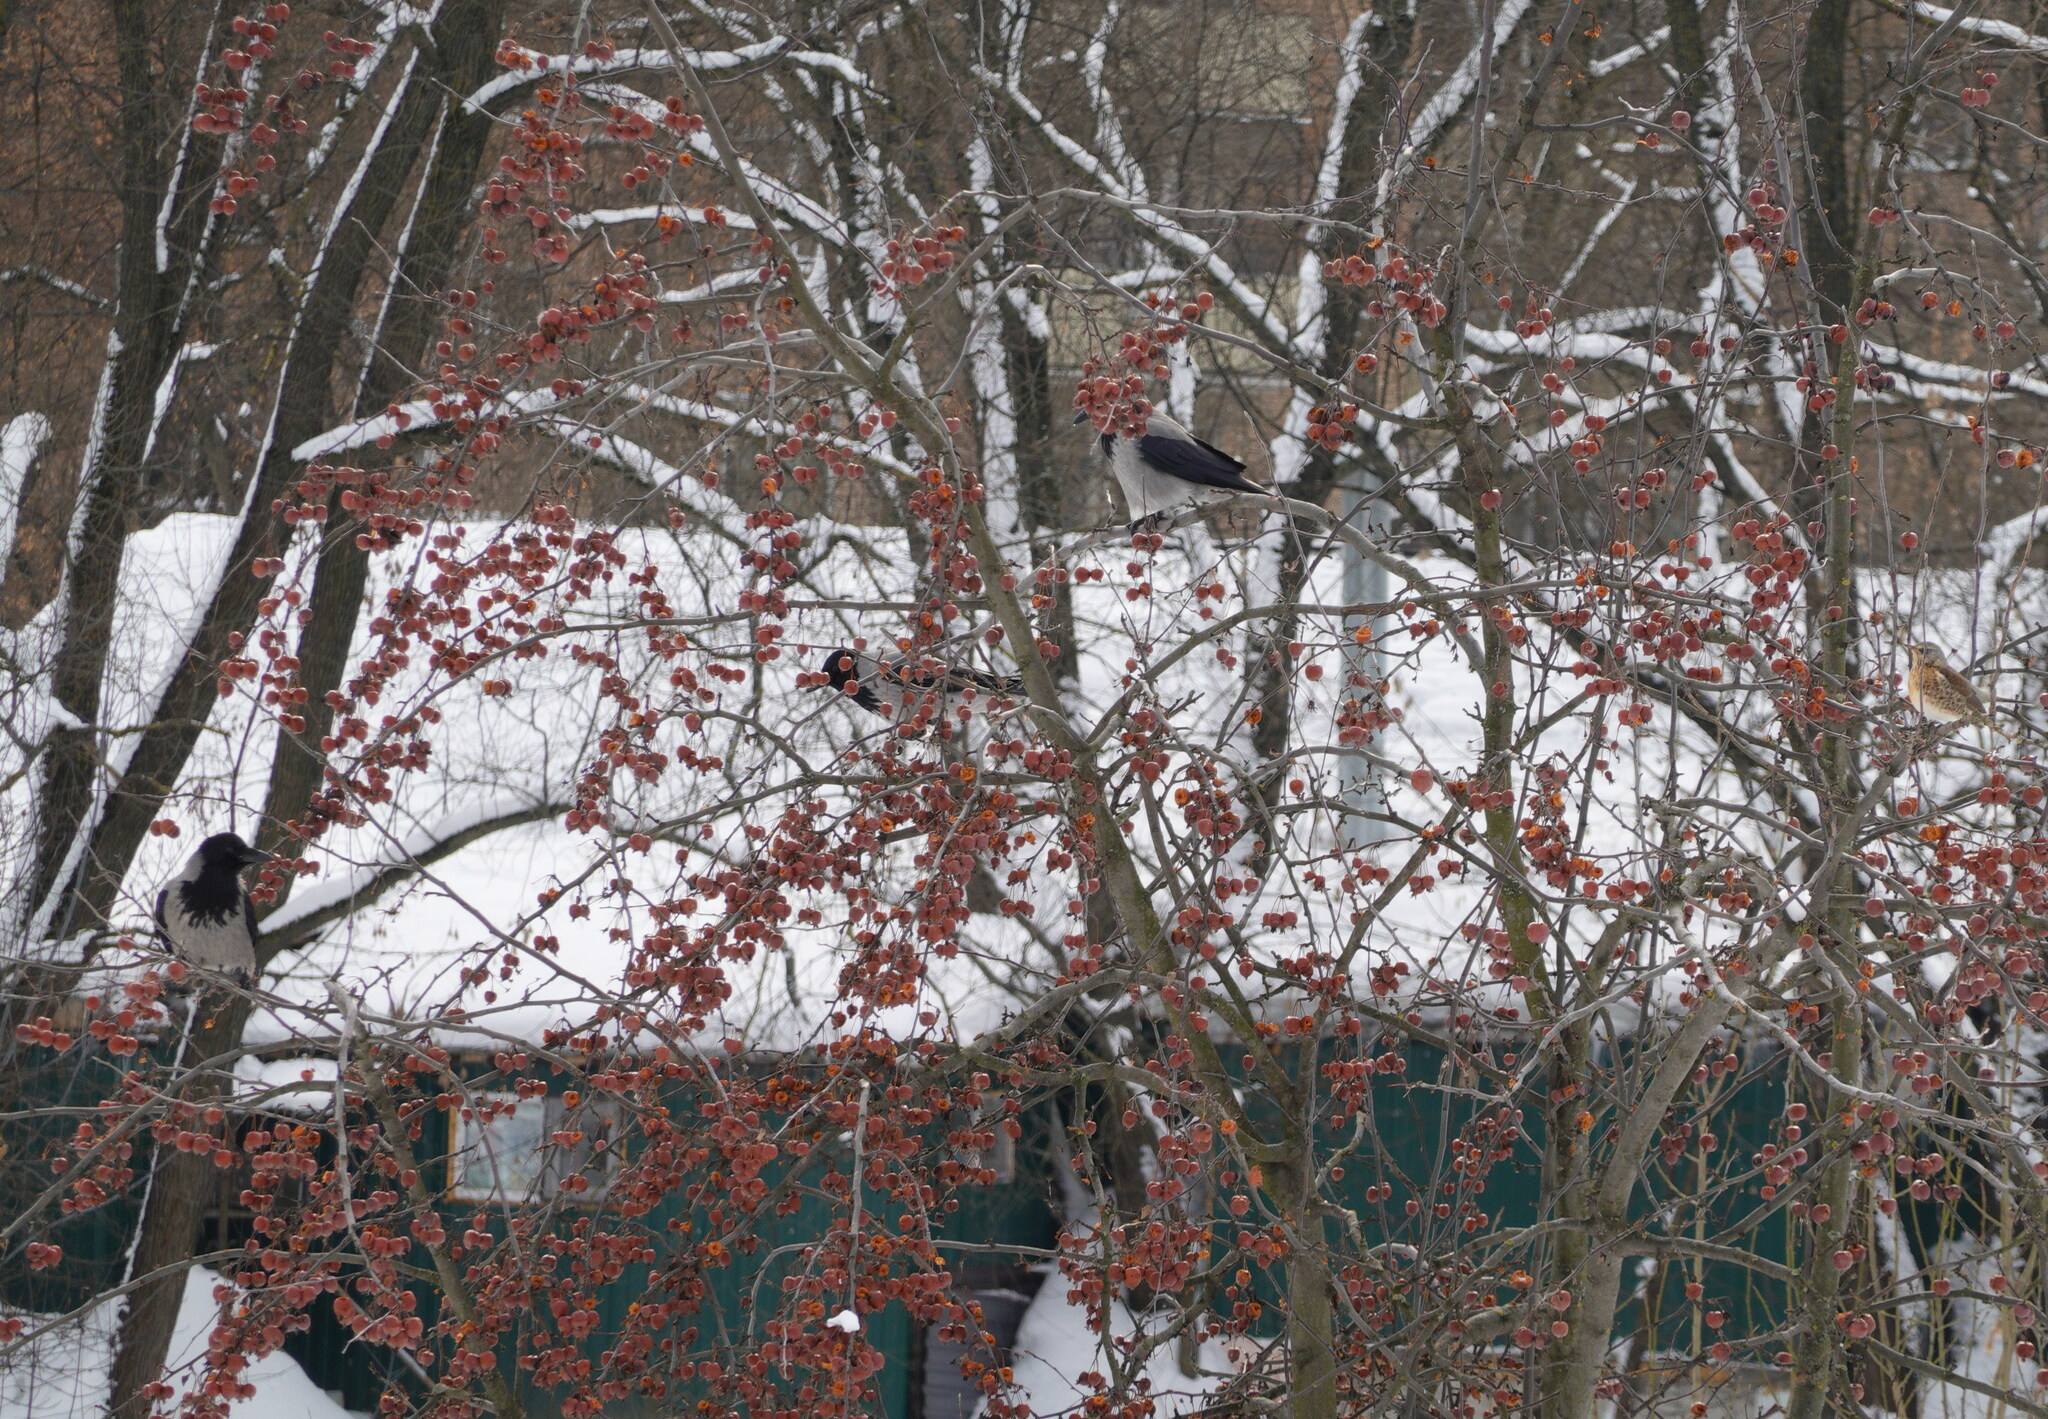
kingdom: Animalia
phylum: Chordata
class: Aves
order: Passeriformes
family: Corvidae
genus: Corvus
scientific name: Corvus cornix
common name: Hooded crow
